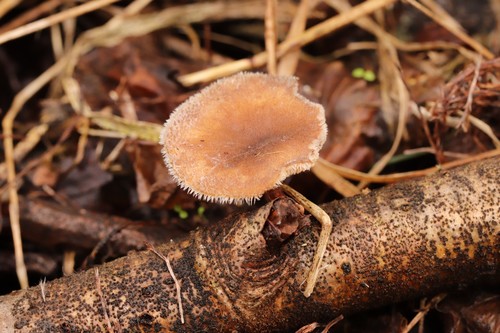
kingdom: Fungi
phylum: Basidiomycota
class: Agaricomycetes
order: Polyporales
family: Polyporaceae
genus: Lentinus
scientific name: Lentinus brumalis
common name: Winter polypore
